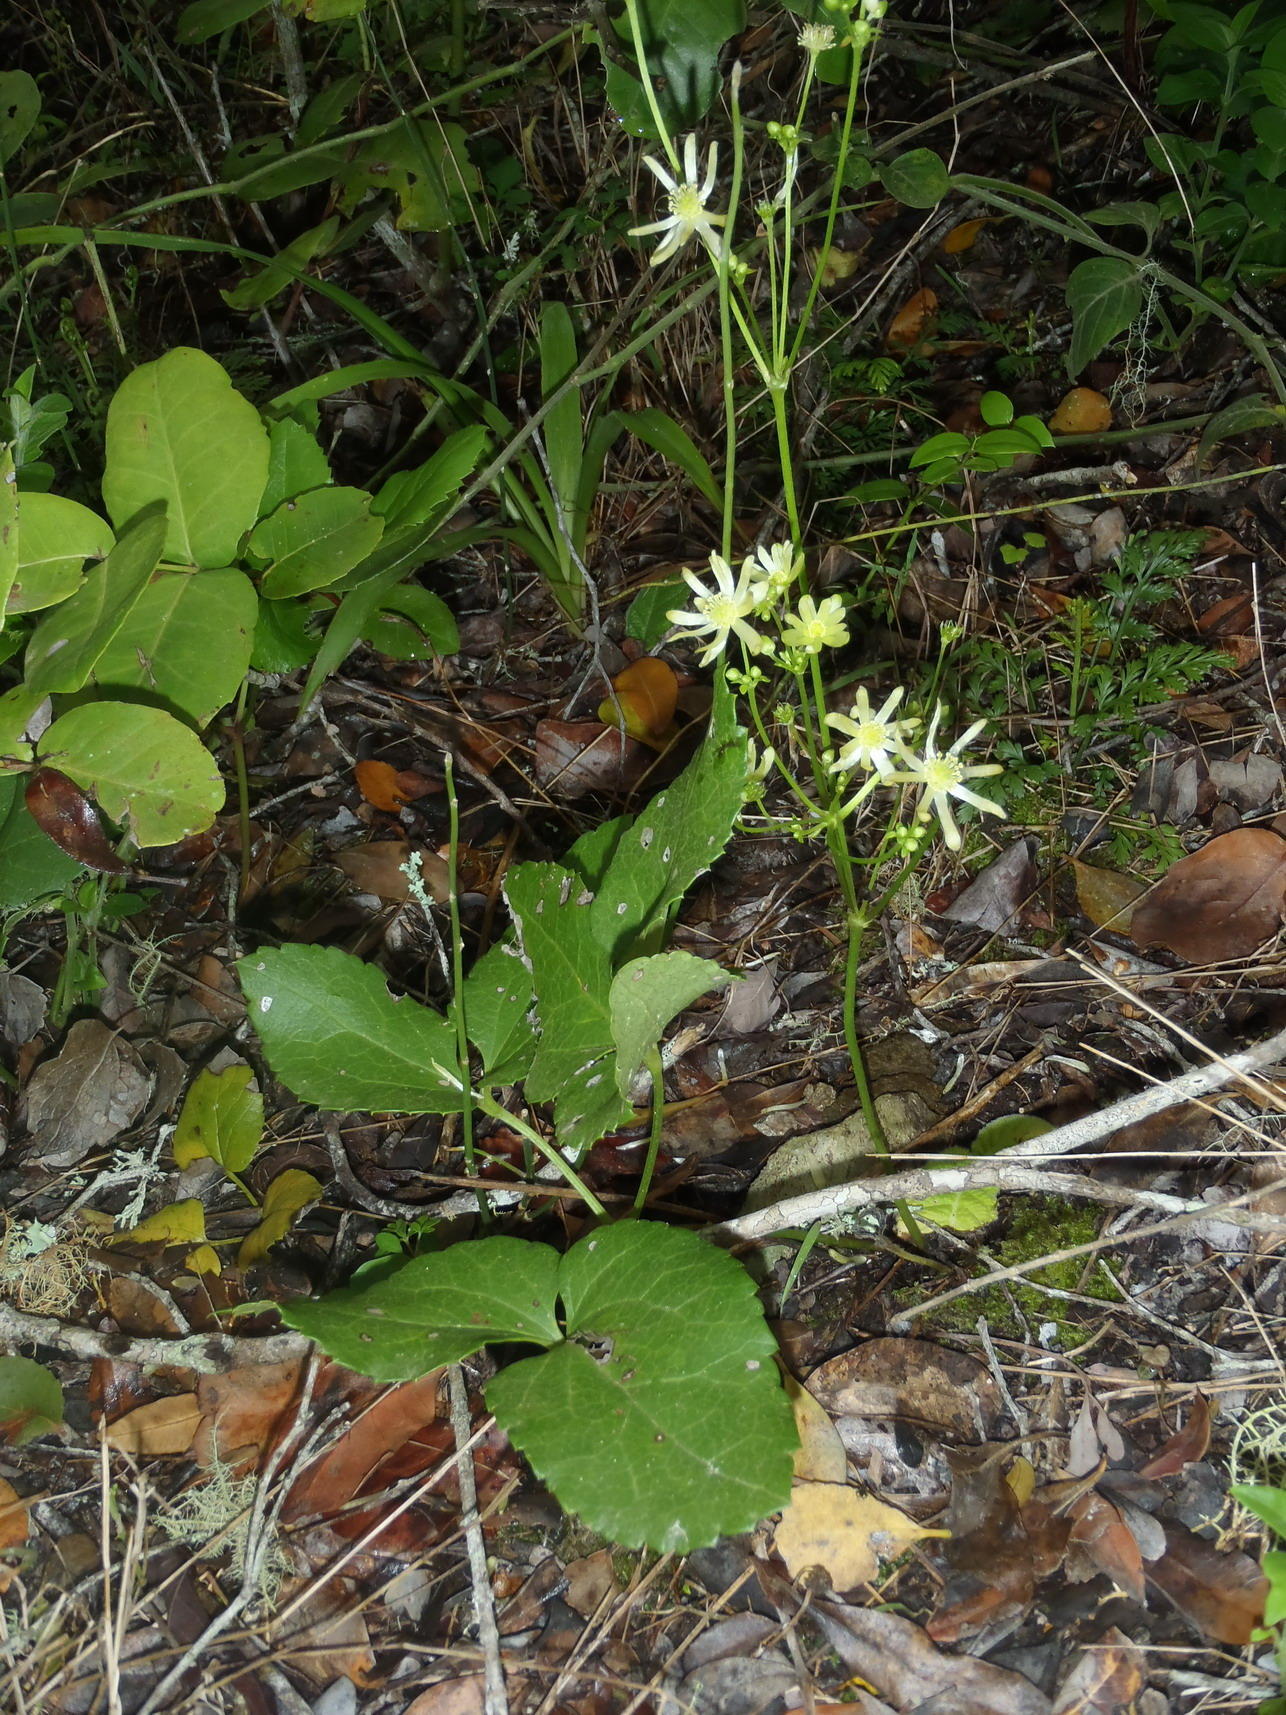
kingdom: Plantae
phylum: Tracheophyta
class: Magnoliopsida
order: Ranunculales
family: Ranunculaceae
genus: Knowltonia
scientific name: Knowltonia vesicatoria
